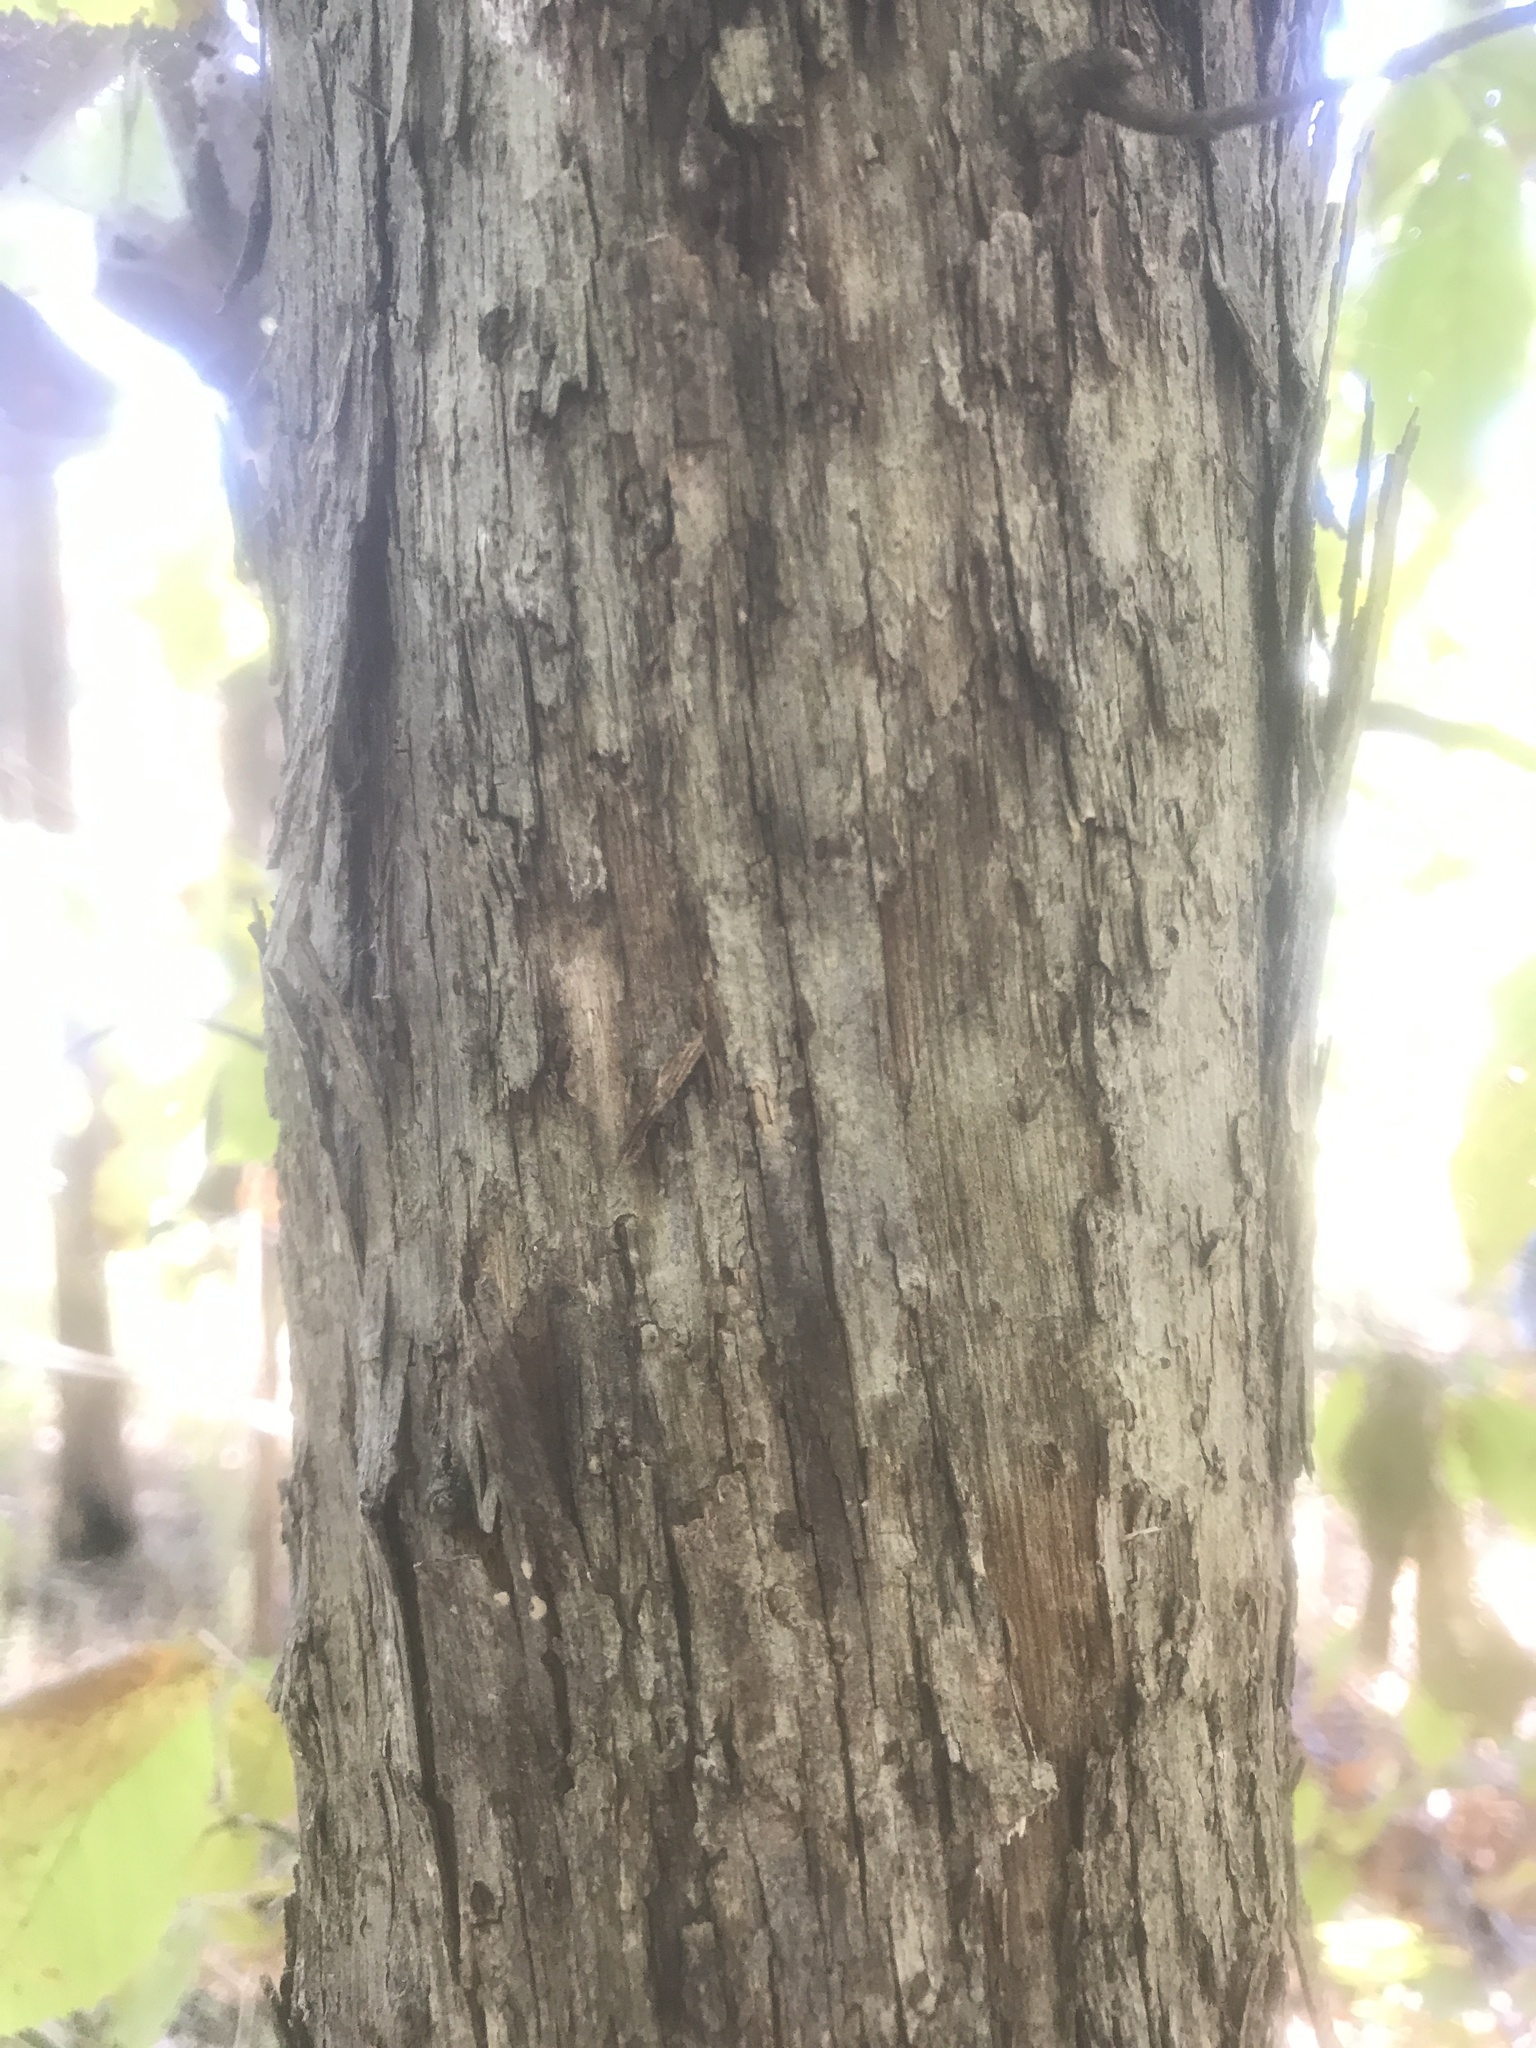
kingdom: Plantae
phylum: Tracheophyta
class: Magnoliopsida
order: Fagales
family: Betulaceae
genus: Ostrya
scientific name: Ostrya virginiana
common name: Ironwood
